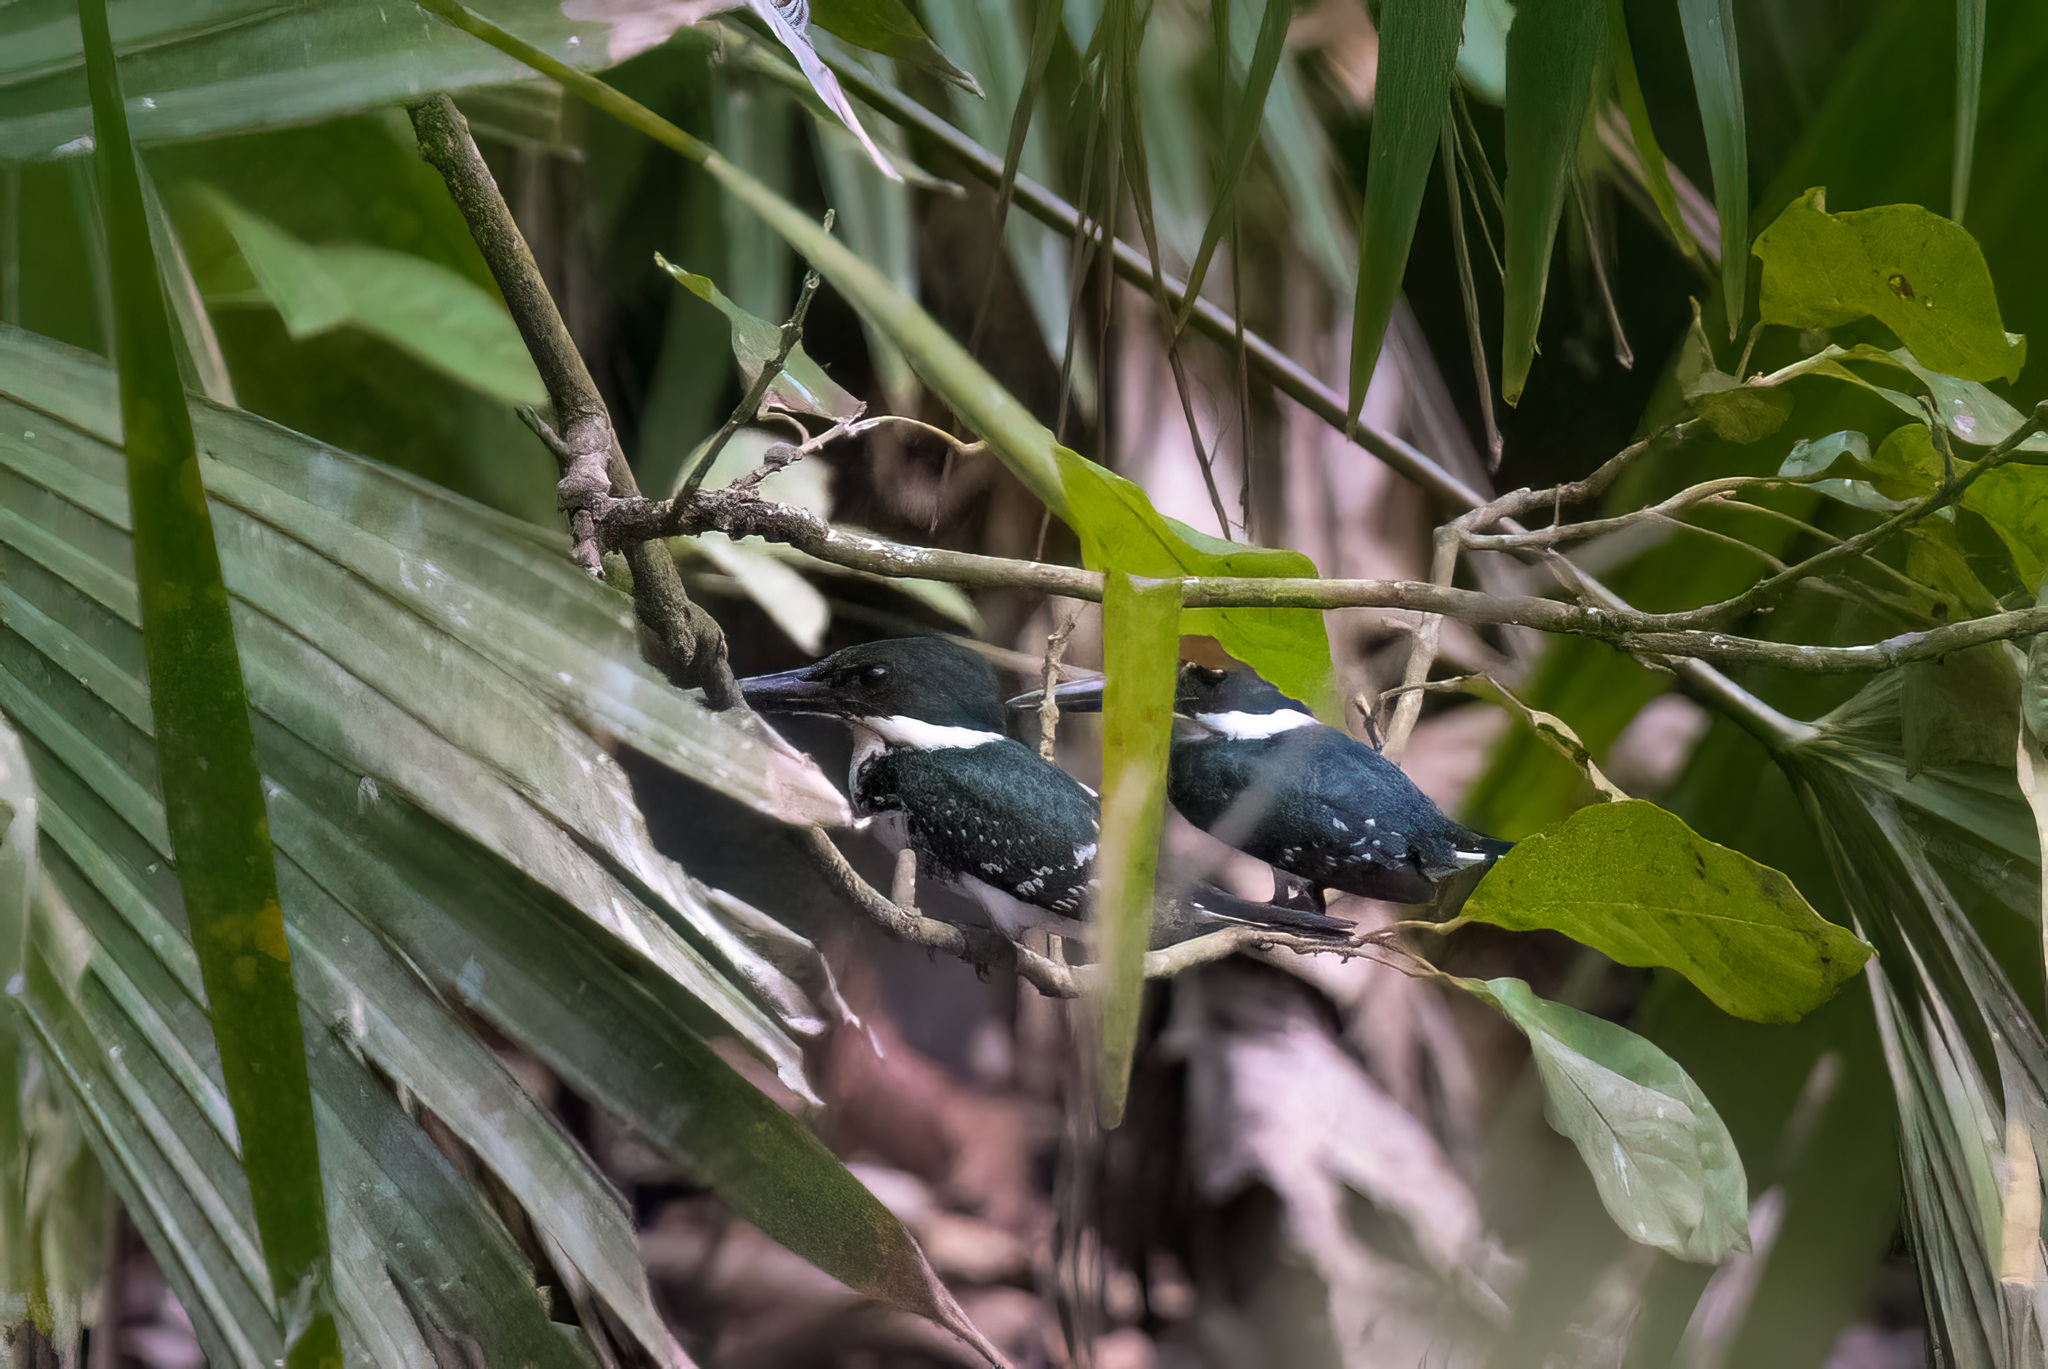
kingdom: Animalia
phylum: Chordata
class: Aves
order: Coraciiformes
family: Alcedinidae
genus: Chloroceryle
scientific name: Chloroceryle americana
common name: Green kingfisher
